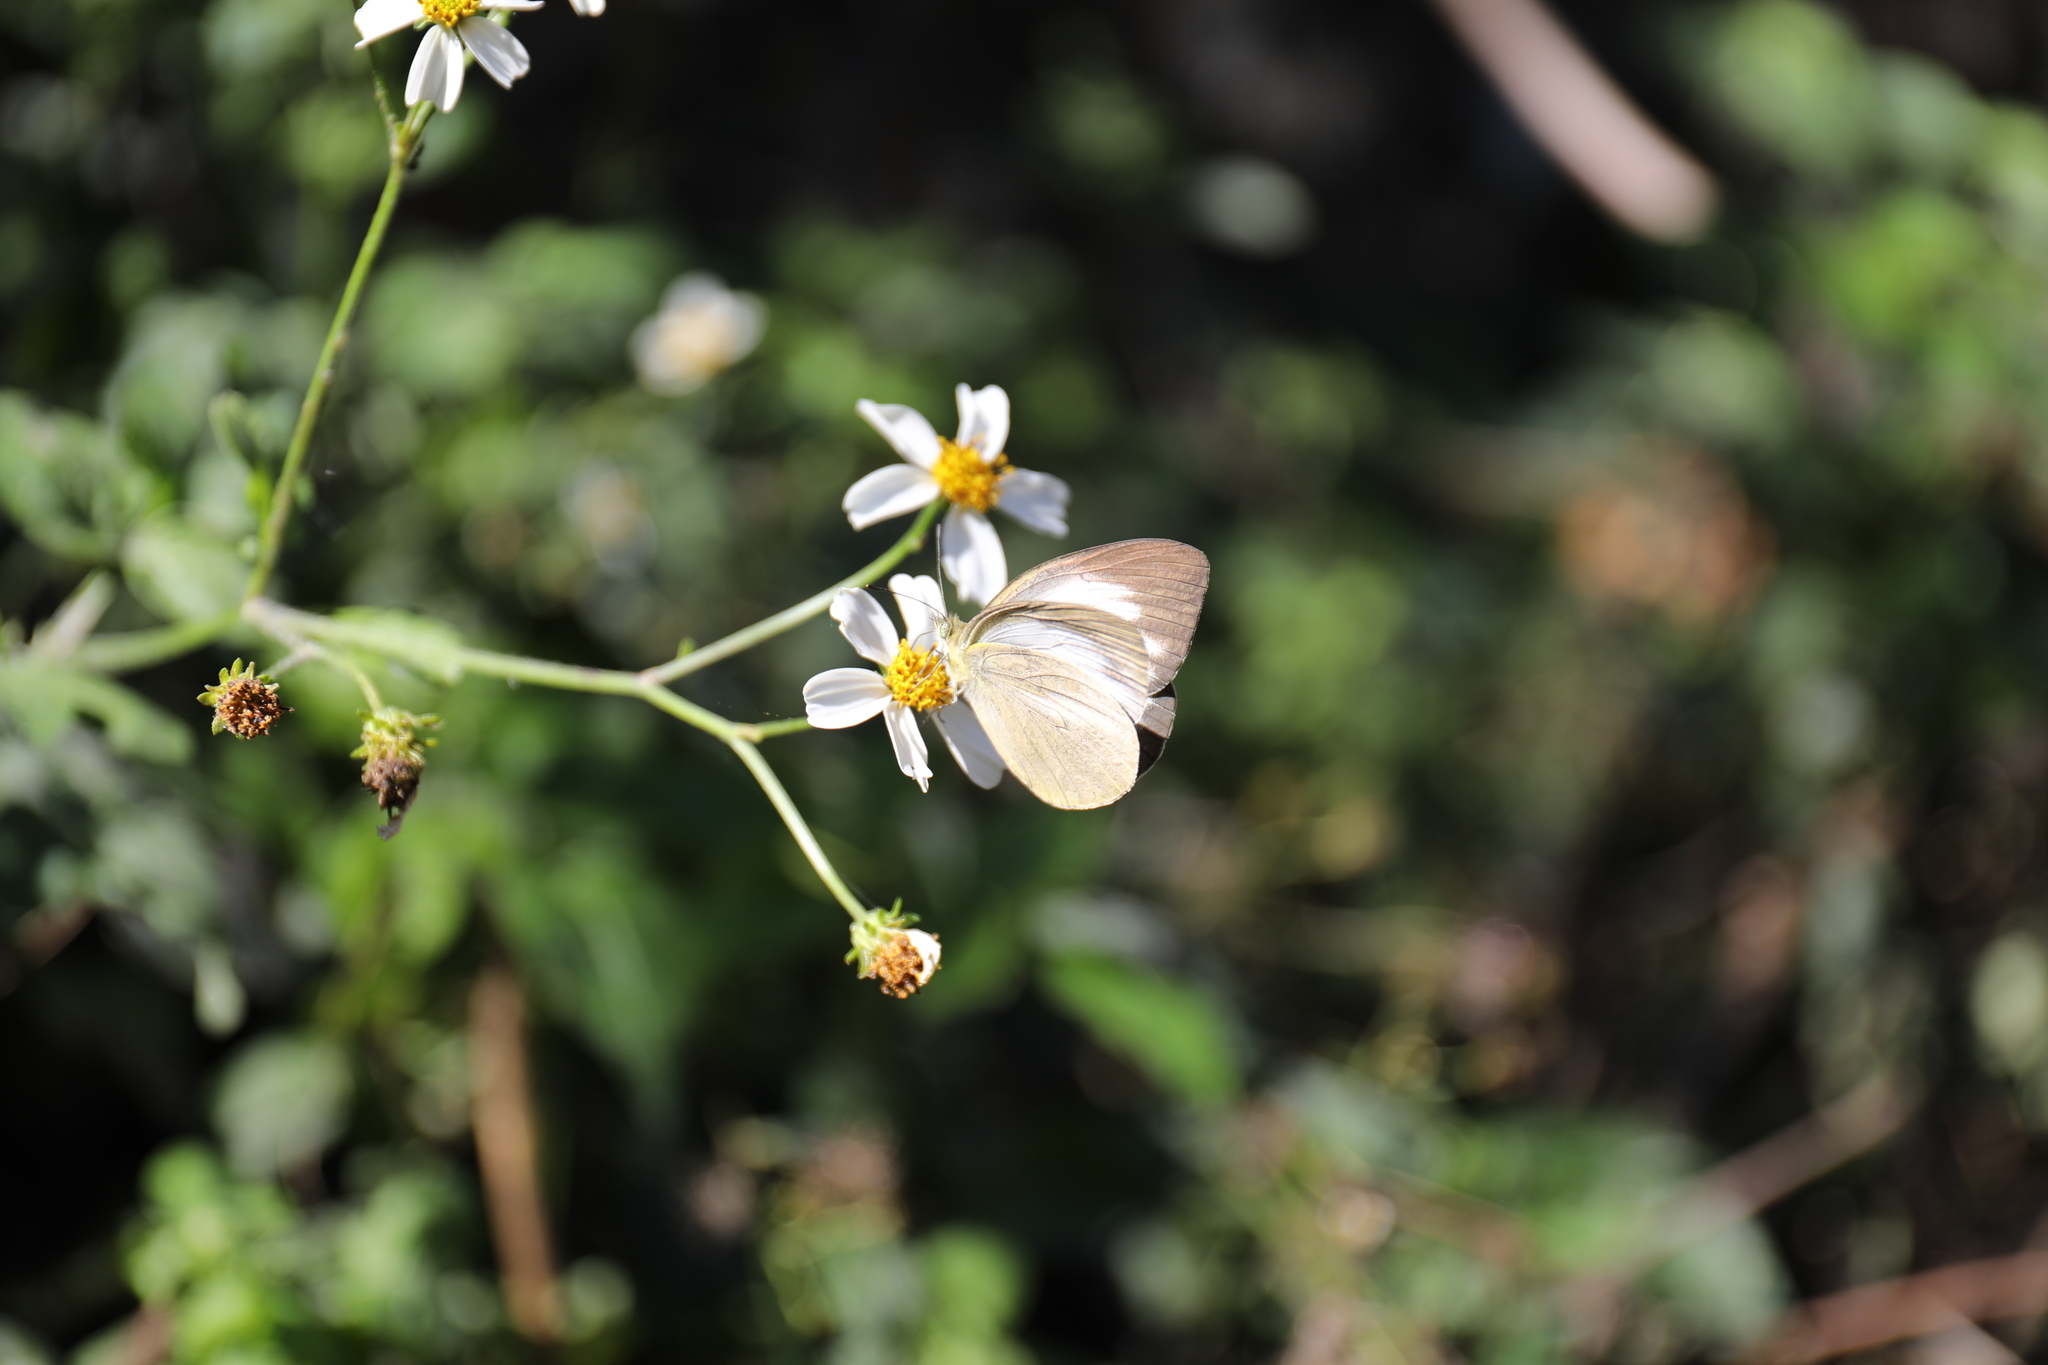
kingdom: Animalia
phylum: Arthropoda
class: Insecta
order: Lepidoptera
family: Pieridae
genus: Cepora
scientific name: Cepora nadina
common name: Lesser gull
